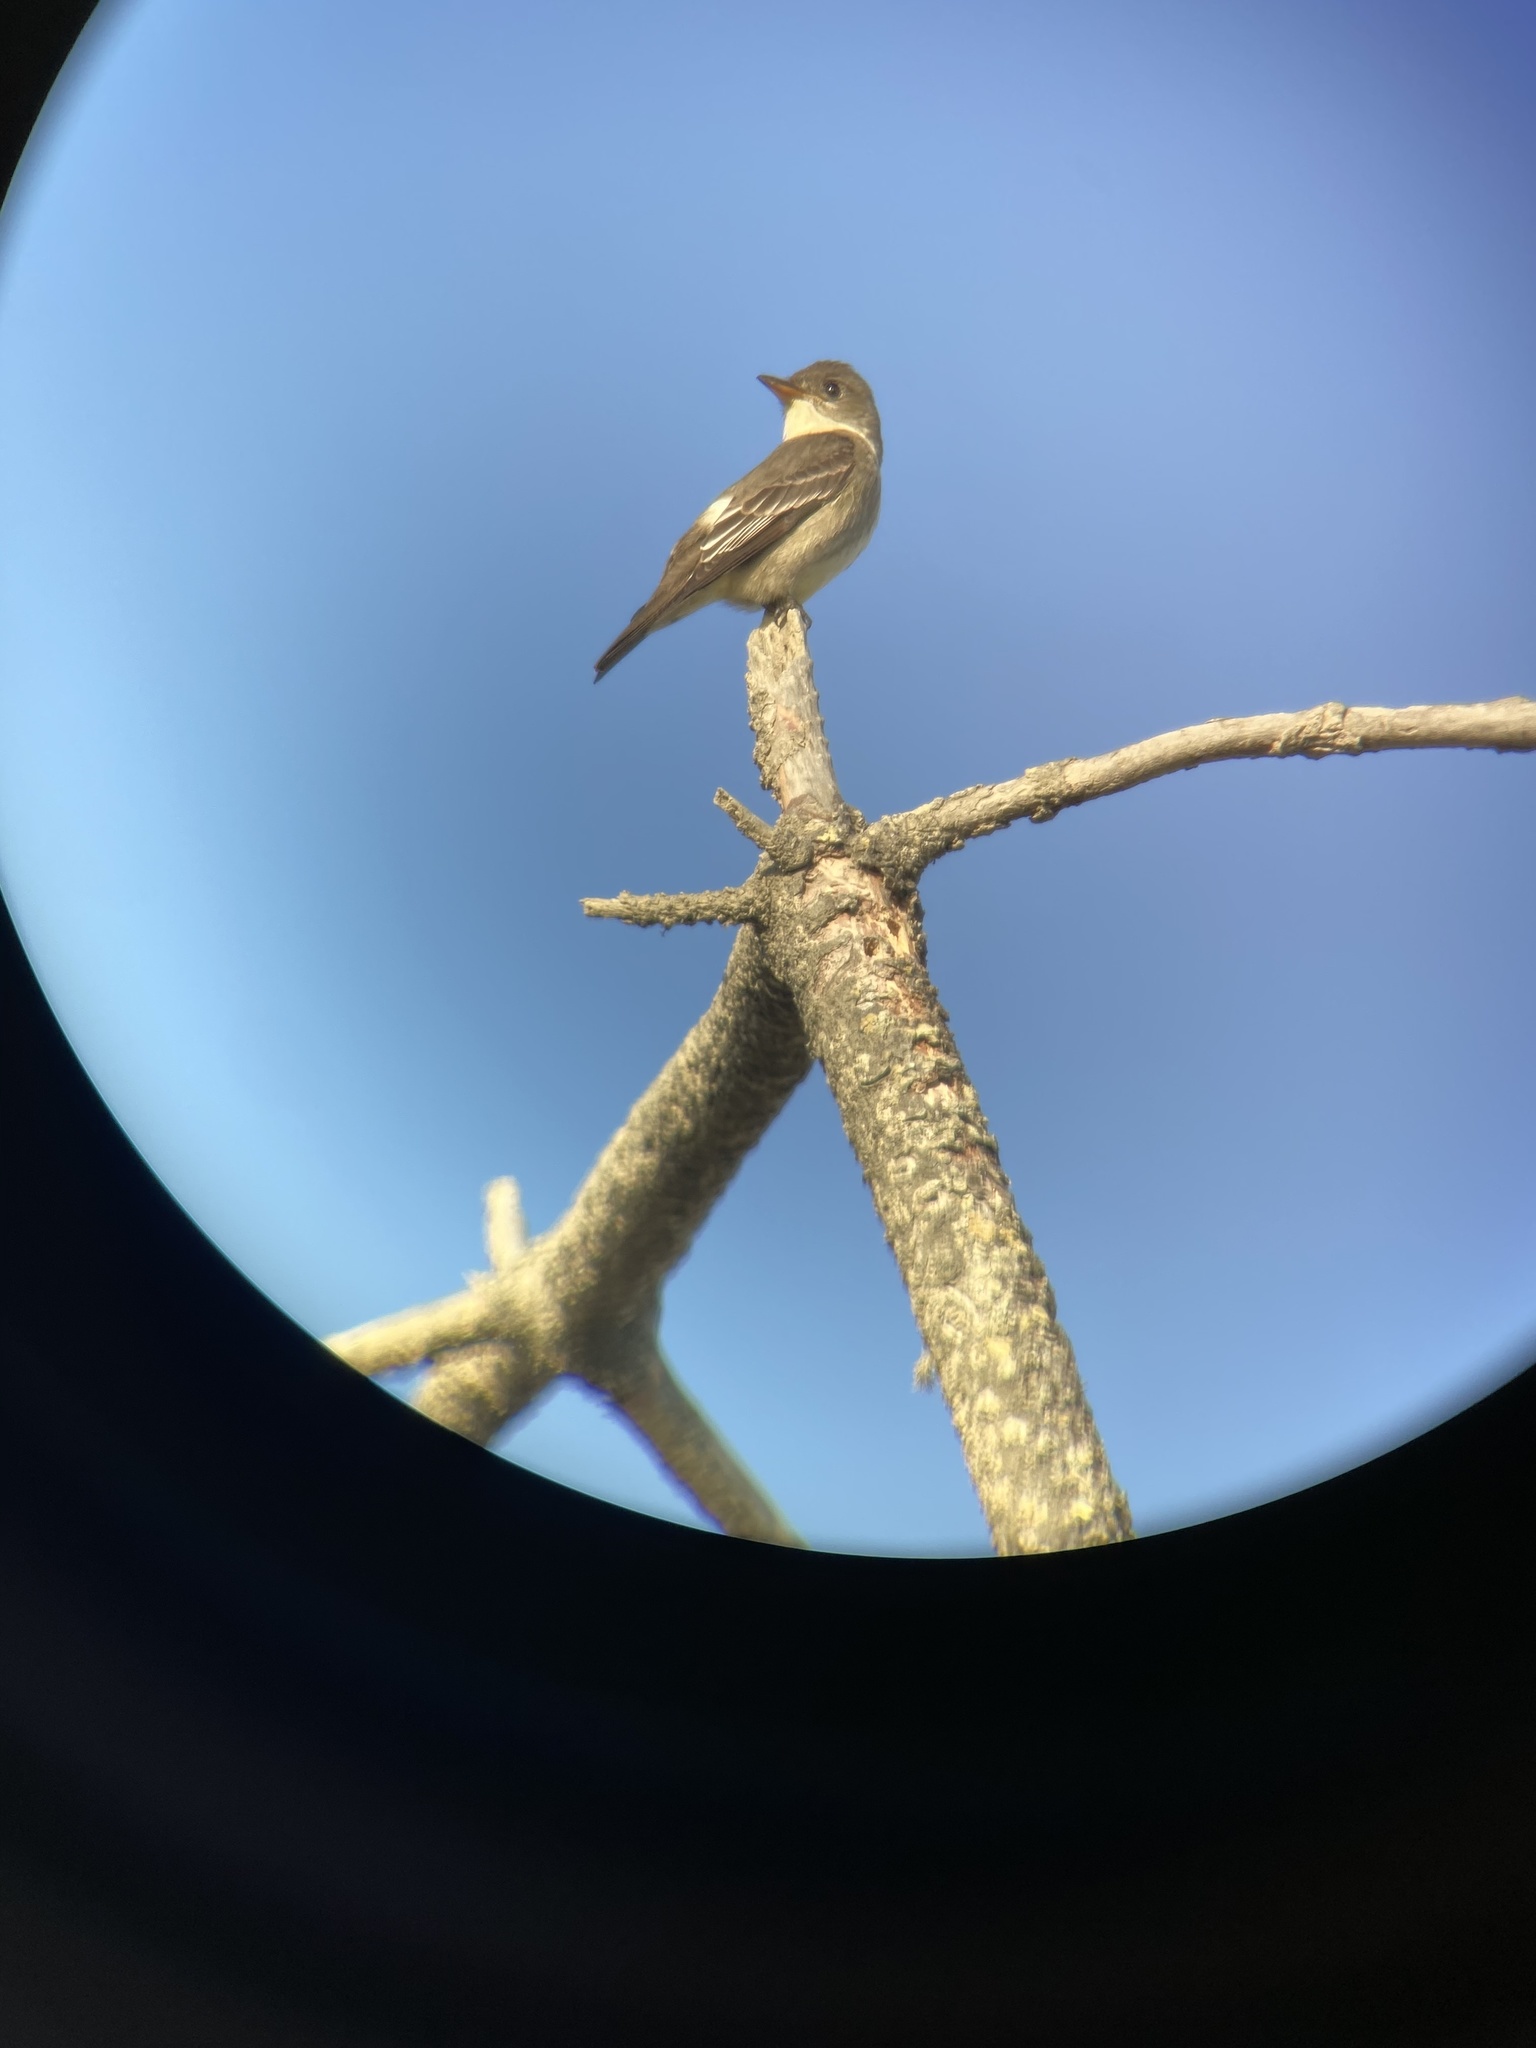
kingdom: Animalia
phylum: Chordata
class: Aves
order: Passeriformes
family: Tyrannidae
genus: Contopus
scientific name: Contopus cooperi
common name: Olive-sided flycatcher
